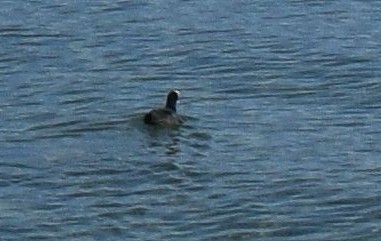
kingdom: Animalia
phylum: Chordata
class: Aves
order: Gruiformes
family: Rallidae
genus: Fulica
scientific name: Fulica atra
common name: Eurasian coot
